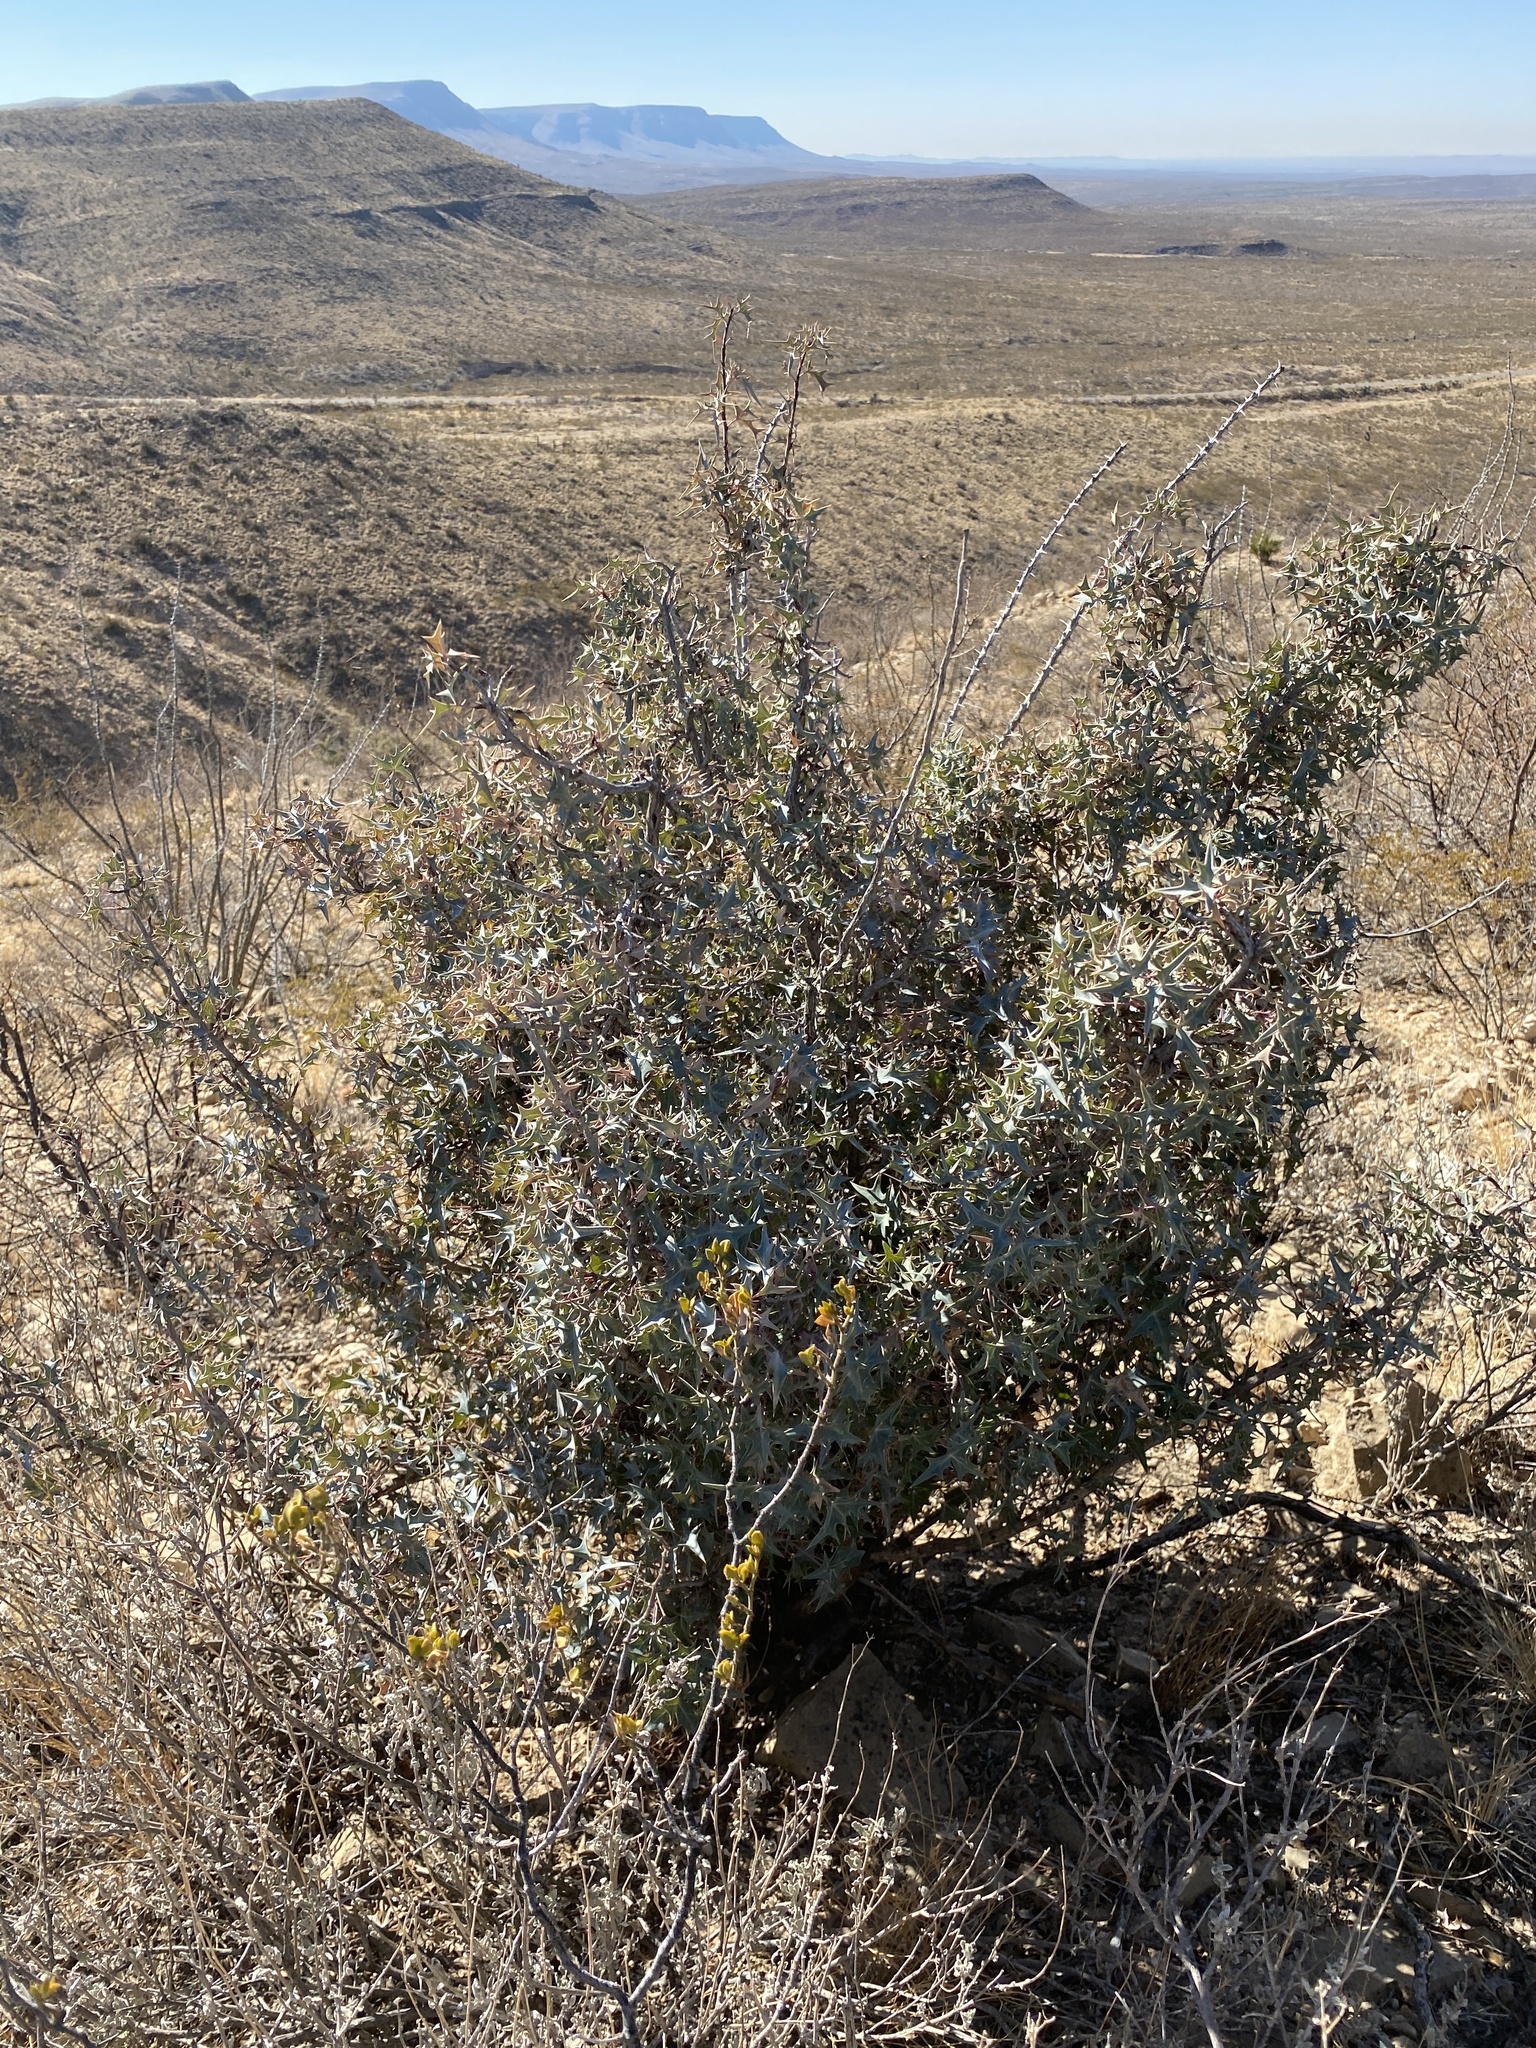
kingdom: Plantae
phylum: Tracheophyta
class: Magnoliopsida
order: Ranunculales
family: Berberidaceae
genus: Alloberberis
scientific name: Alloberberis trifoliolata
